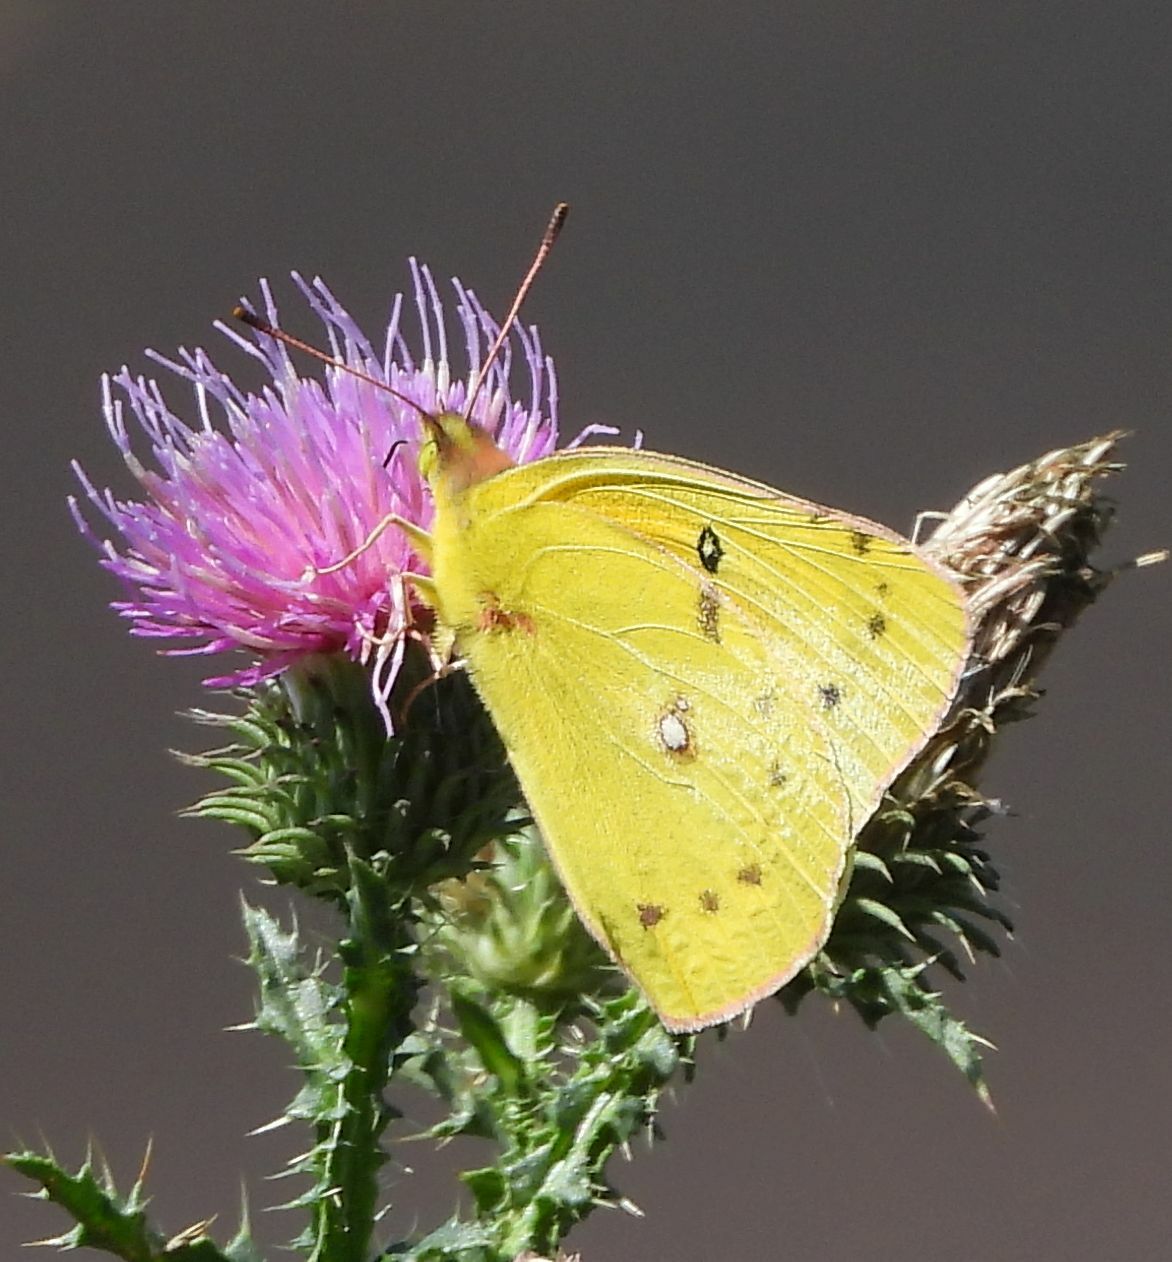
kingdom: Animalia
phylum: Arthropoda
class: Insecta
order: Lepidoptera
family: Pieridae
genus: Colias
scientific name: Colias eurytheme
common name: Alfalfa butterfly
